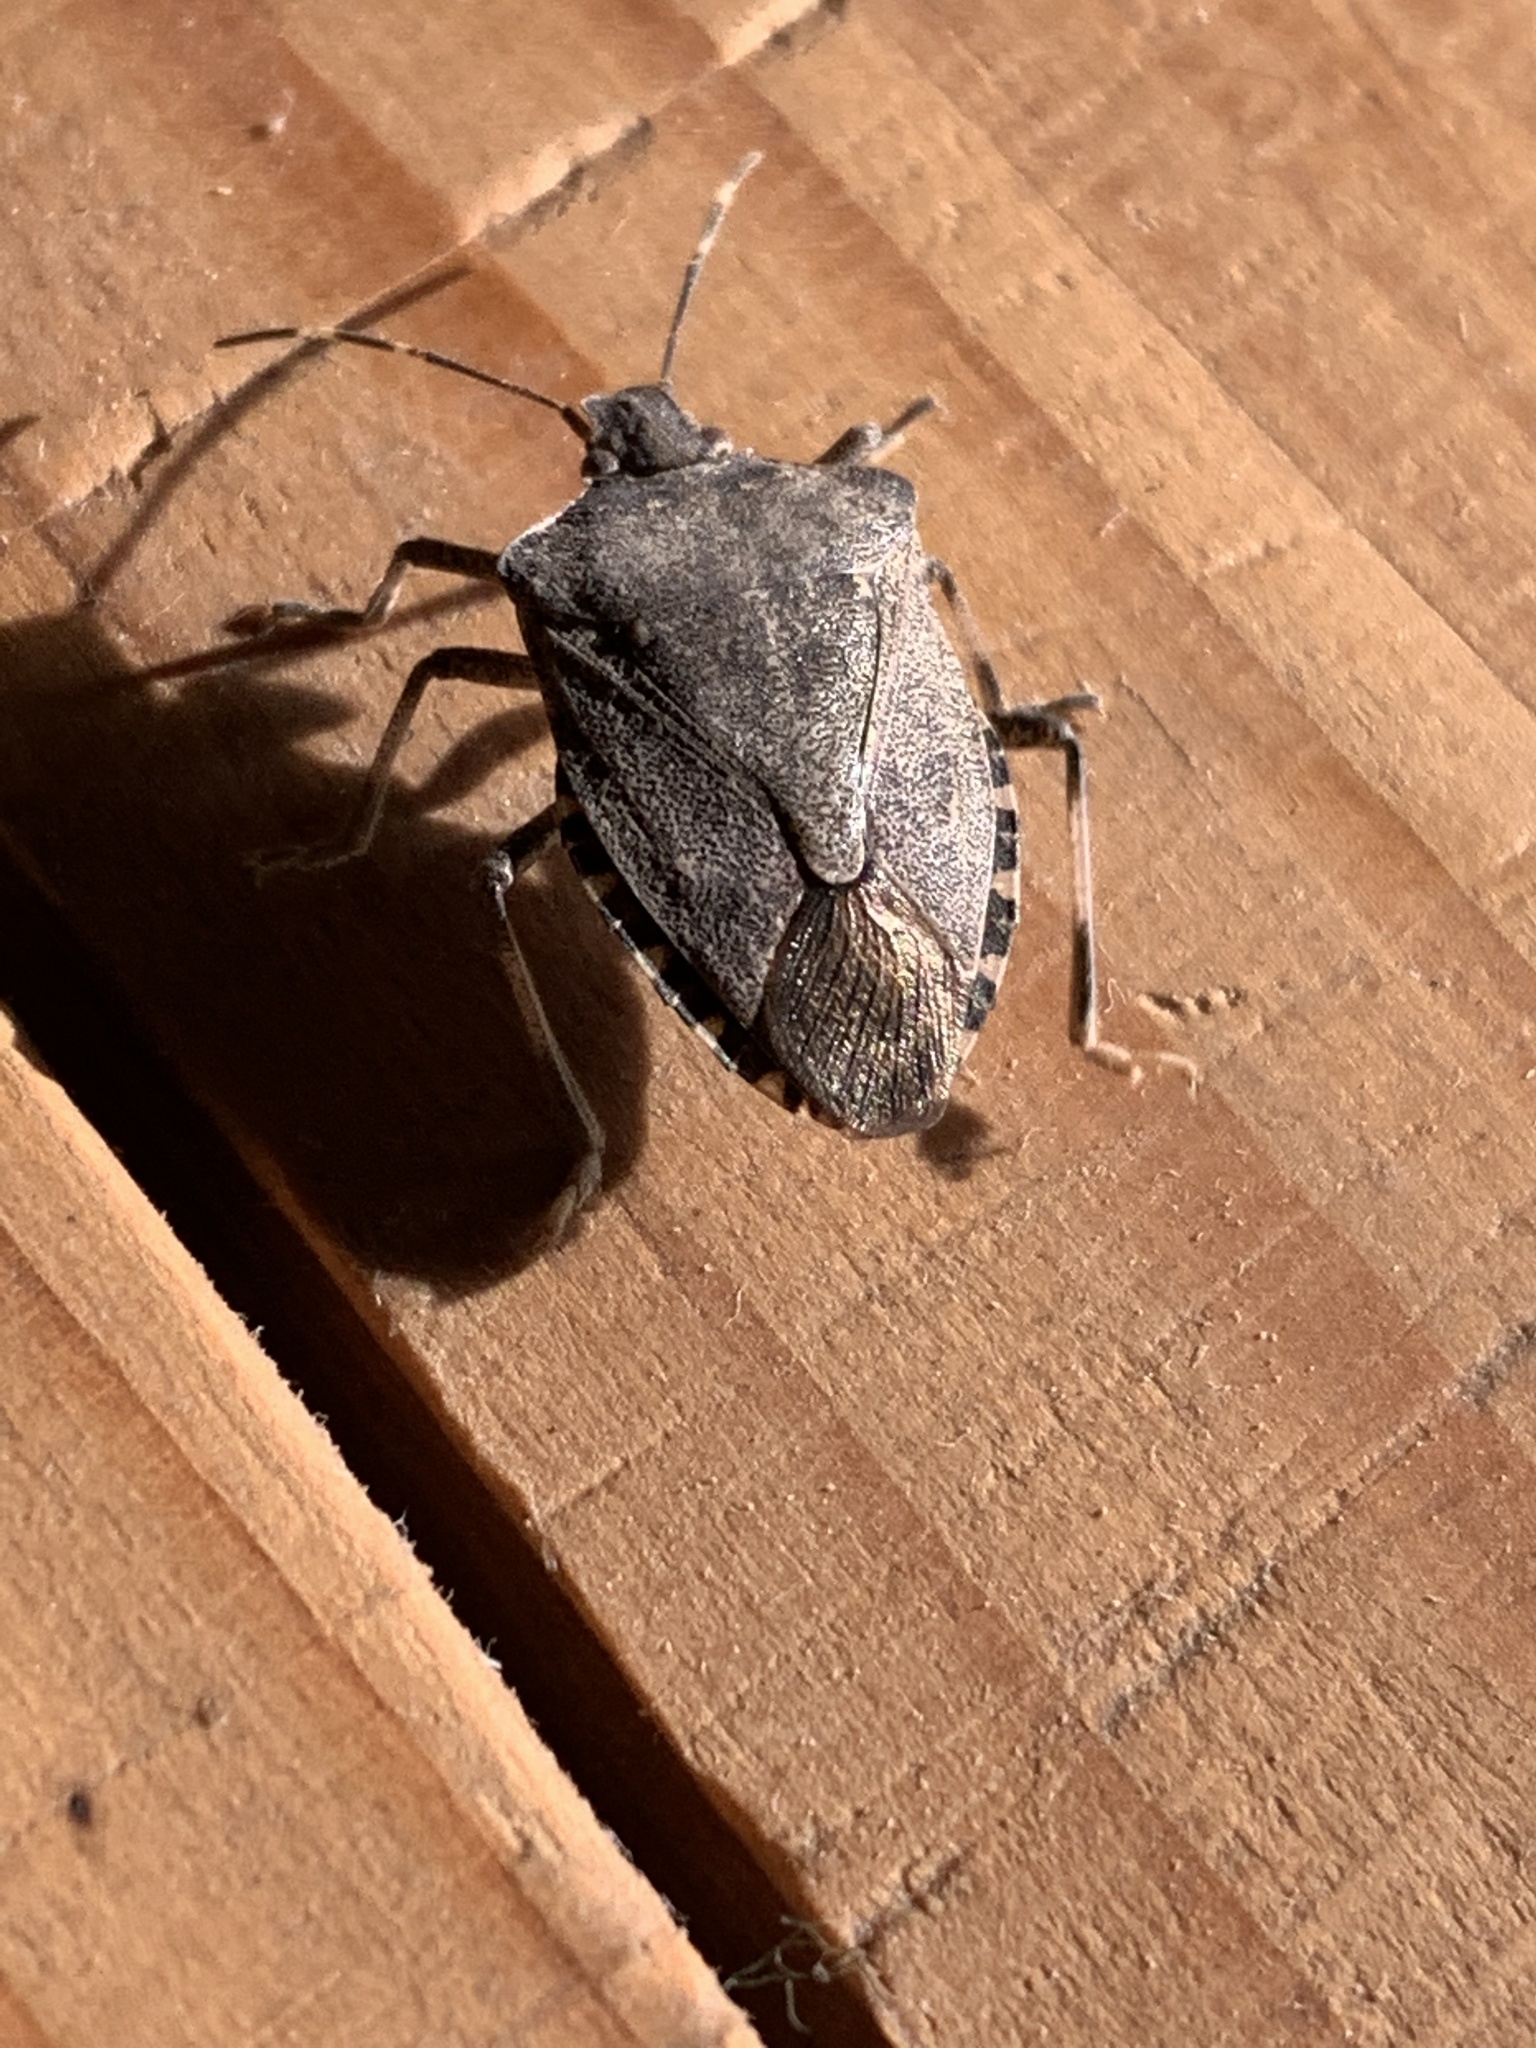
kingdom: Animalia
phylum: Arthropoda
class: Insecta
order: Hemiptera
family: Pentatomidae
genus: Halyomorpha
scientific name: Halyomorpha halys
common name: Brown marmorated stink bug
